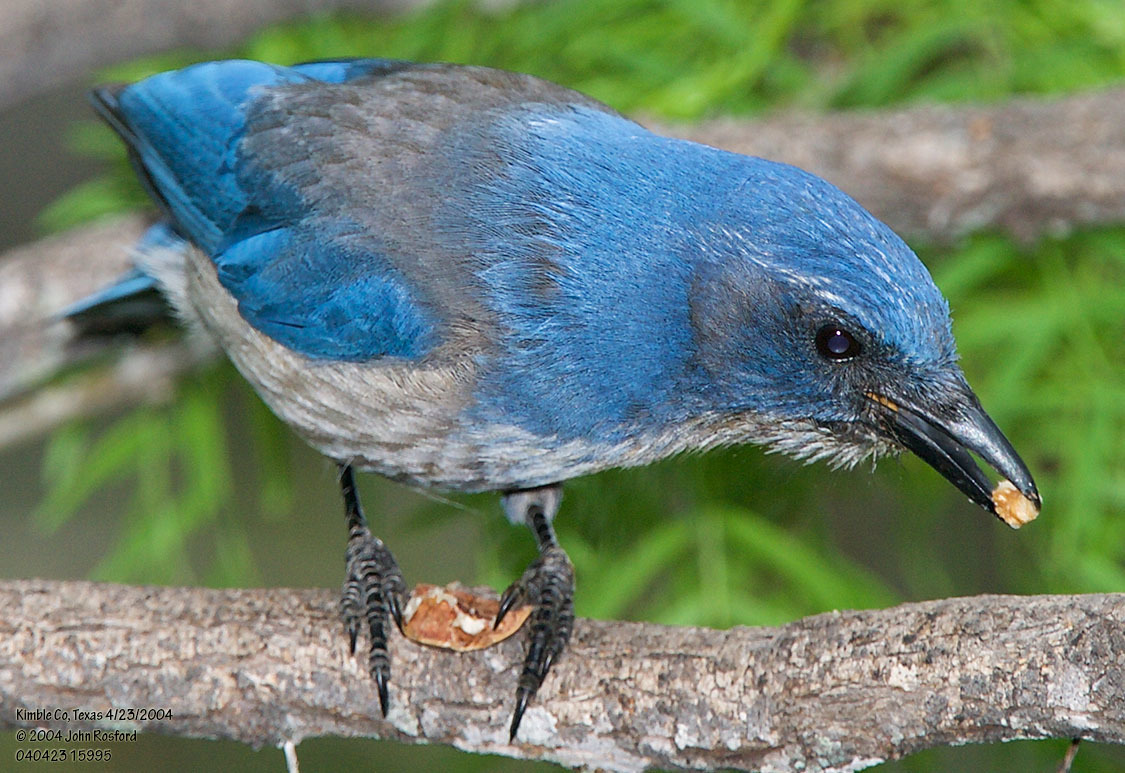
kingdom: Animalia
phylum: Chordata
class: Aves
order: Passeriformes
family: Corvidae
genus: Aphelocoma
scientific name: Aphelocoma woodhouseii
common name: Woodhouse's scrub-jay
